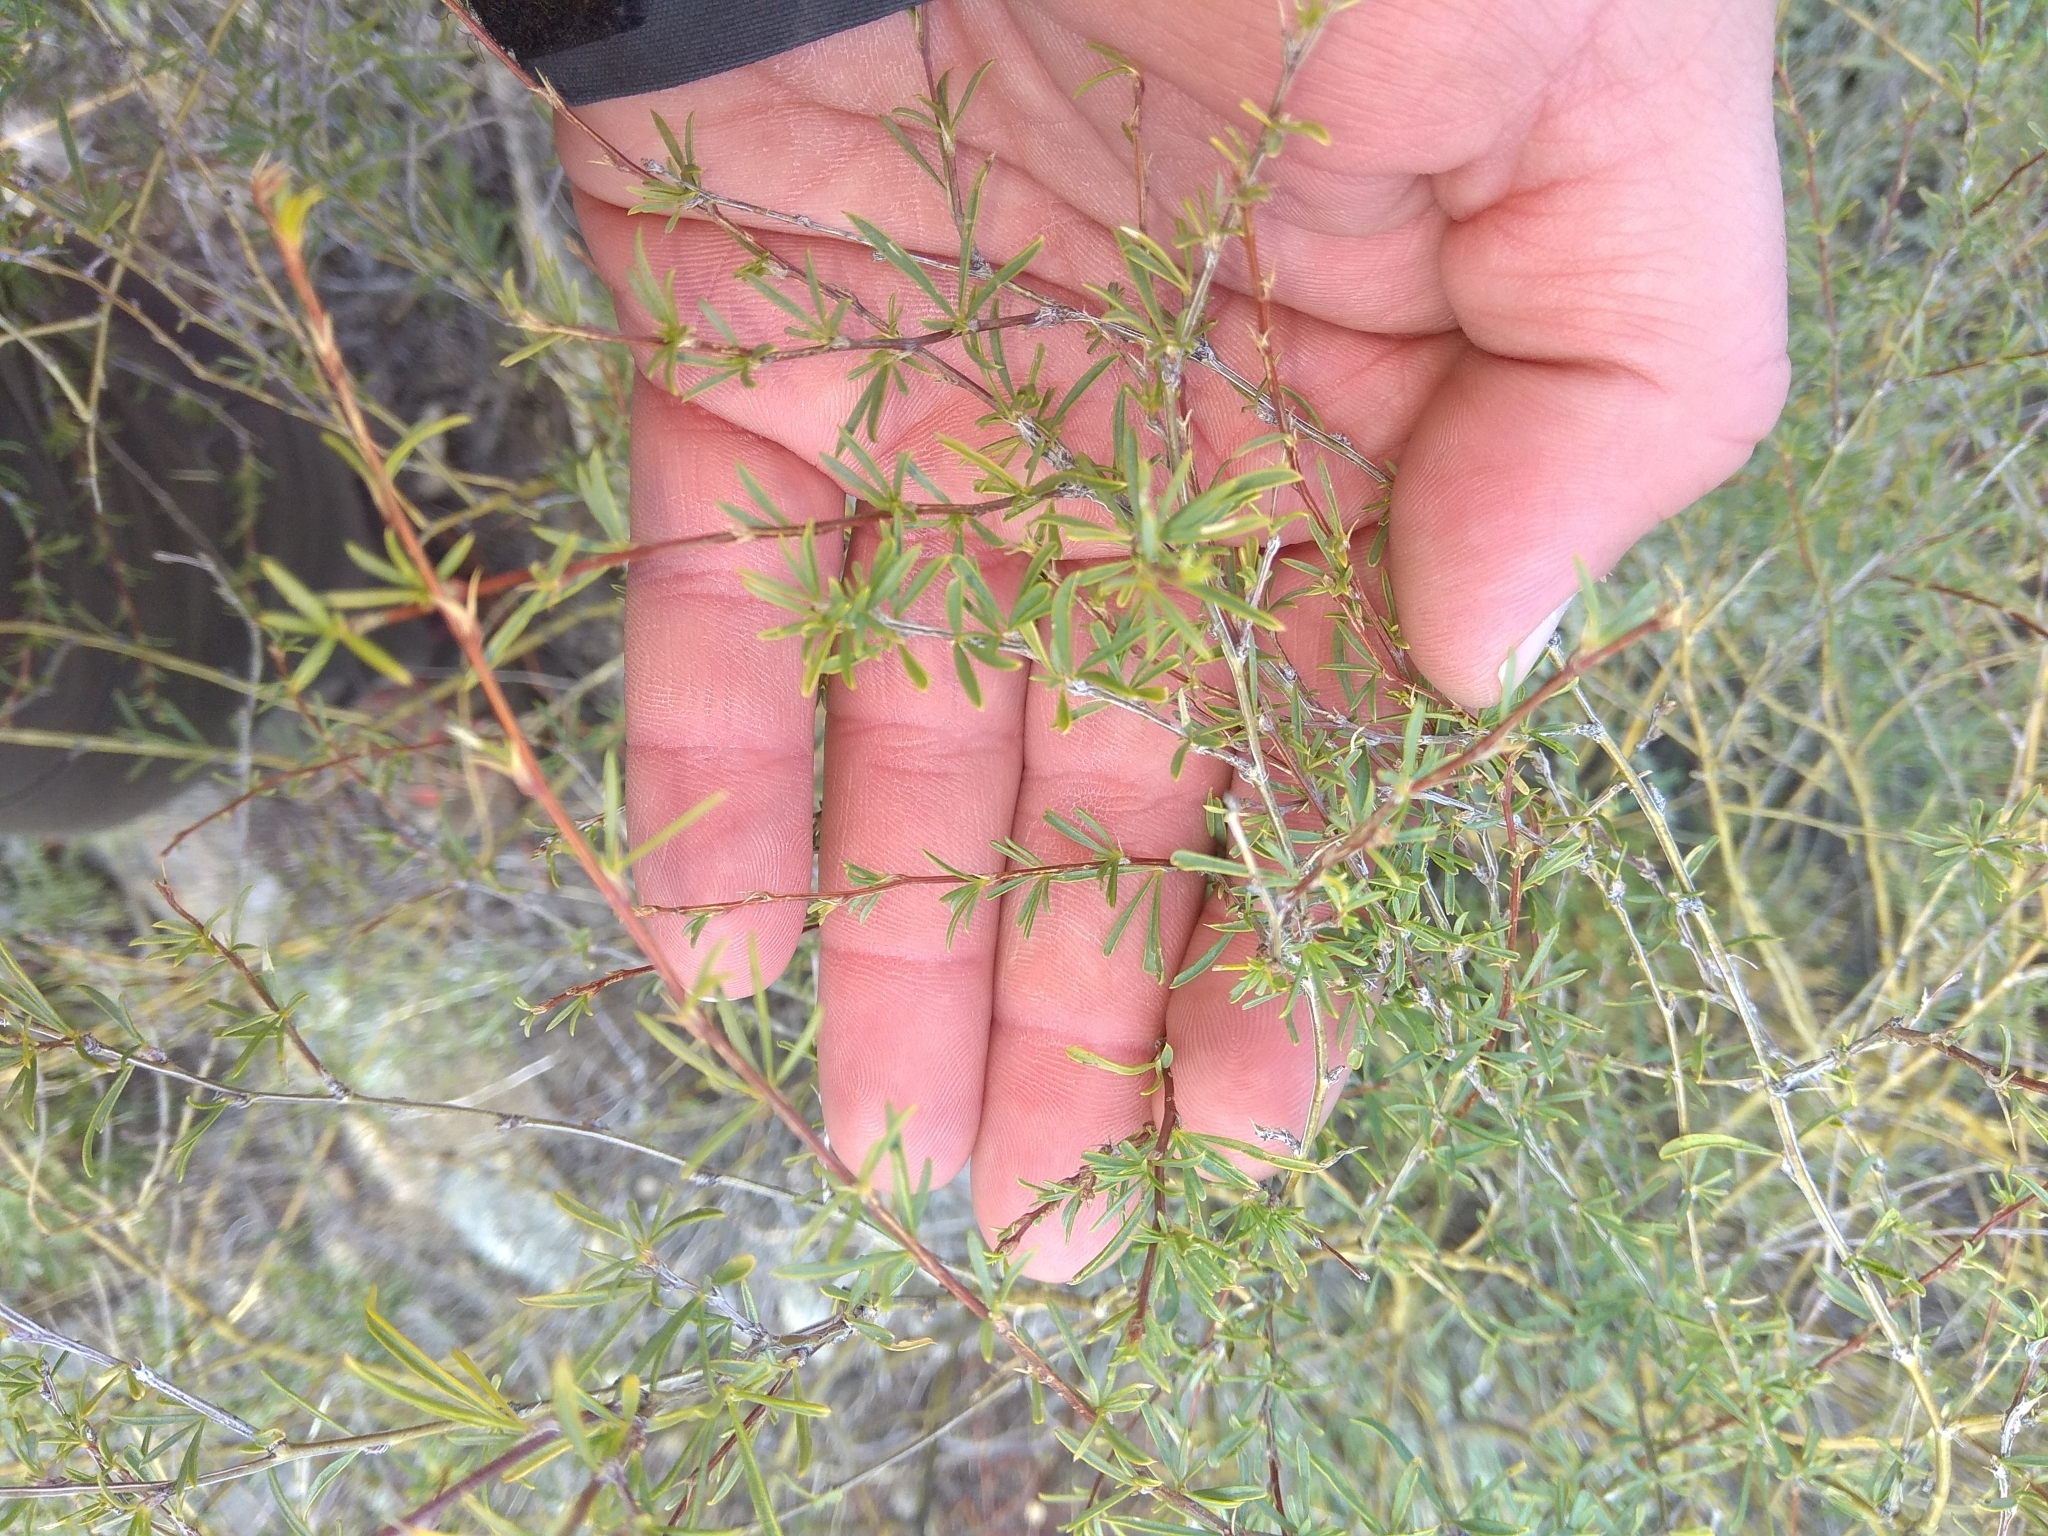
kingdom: Plantae
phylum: Tracheophyta
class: Magnoliopsida
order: Fabales
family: Fabaceae
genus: Caragana
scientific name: Caragana pygmaea
